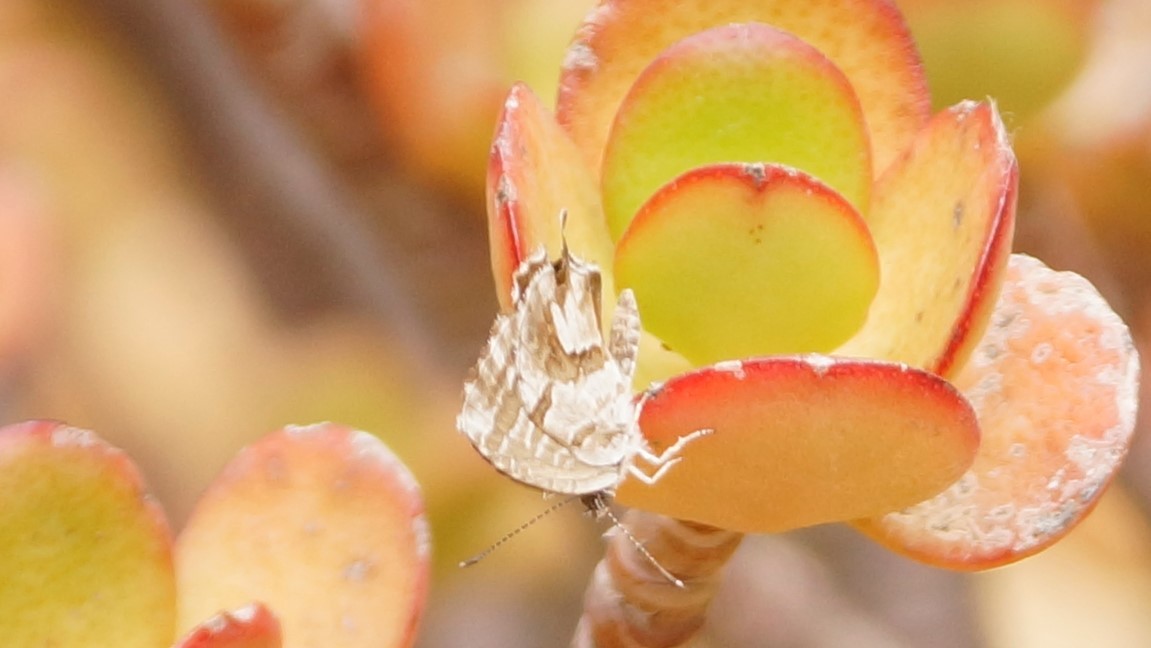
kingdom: Animalia
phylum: Arthropoda
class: Insecta
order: Lepidoptera
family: Lycaenidae
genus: Cacyreus
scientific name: Cacyreus marshalli
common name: Geranium bronze
